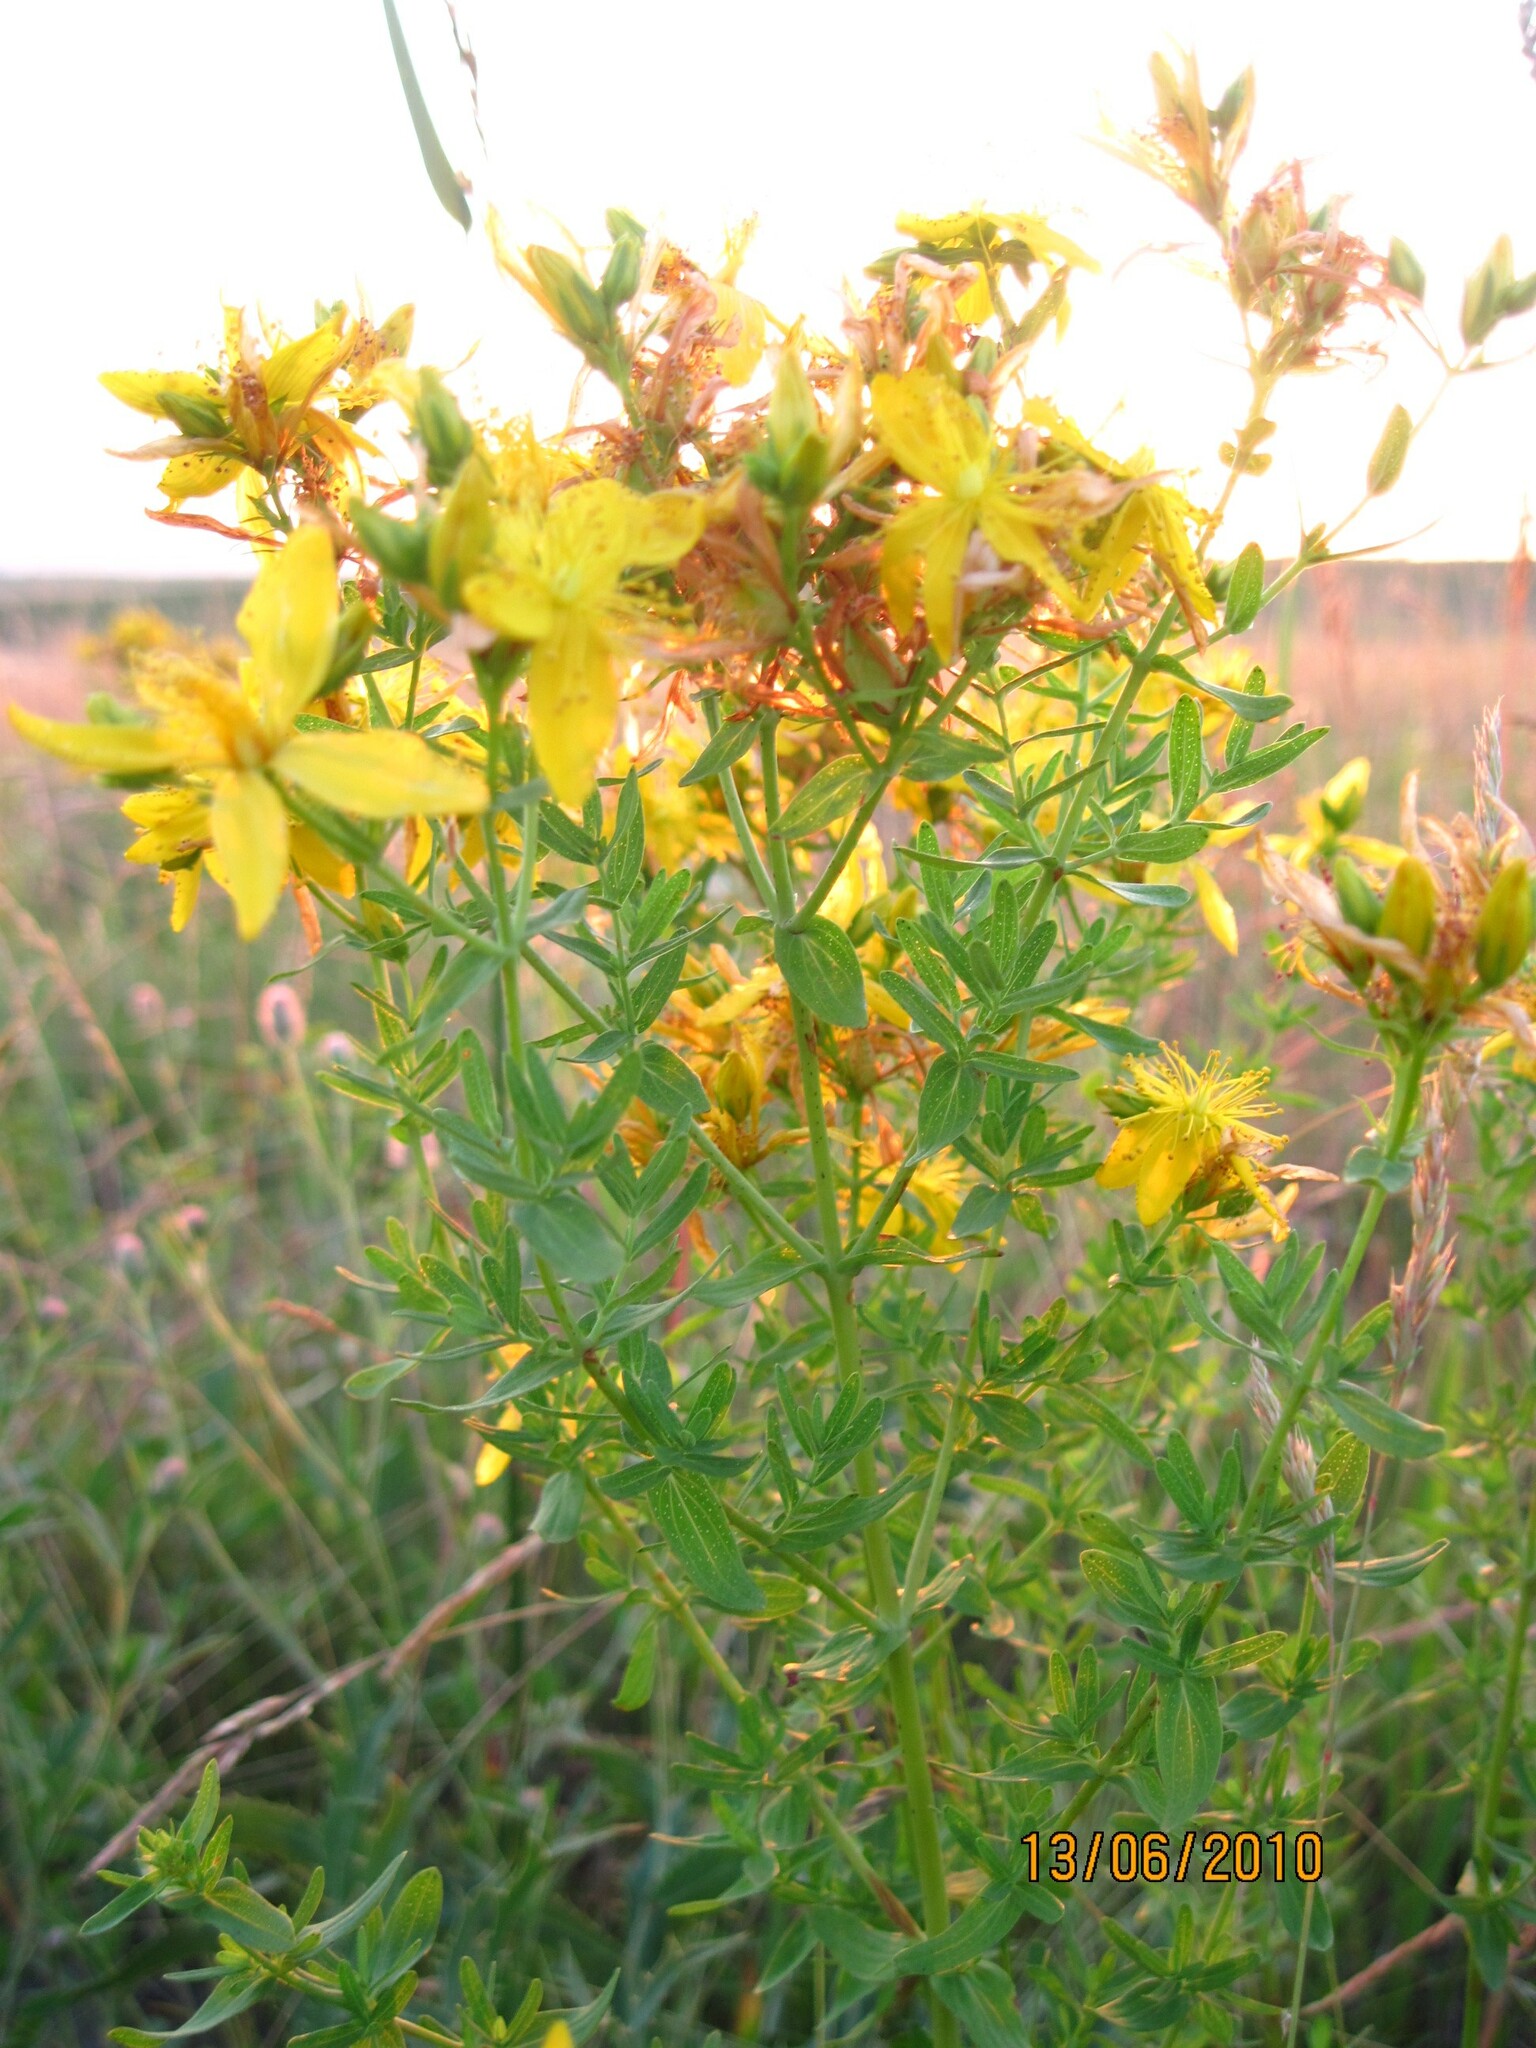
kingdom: Plantae
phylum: Tracheophyta
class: Magnoliopsida
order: Malpighiales
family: Hypericaceae
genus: Hypericum
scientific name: Hypericum perforatum
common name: Common st. johnswort
